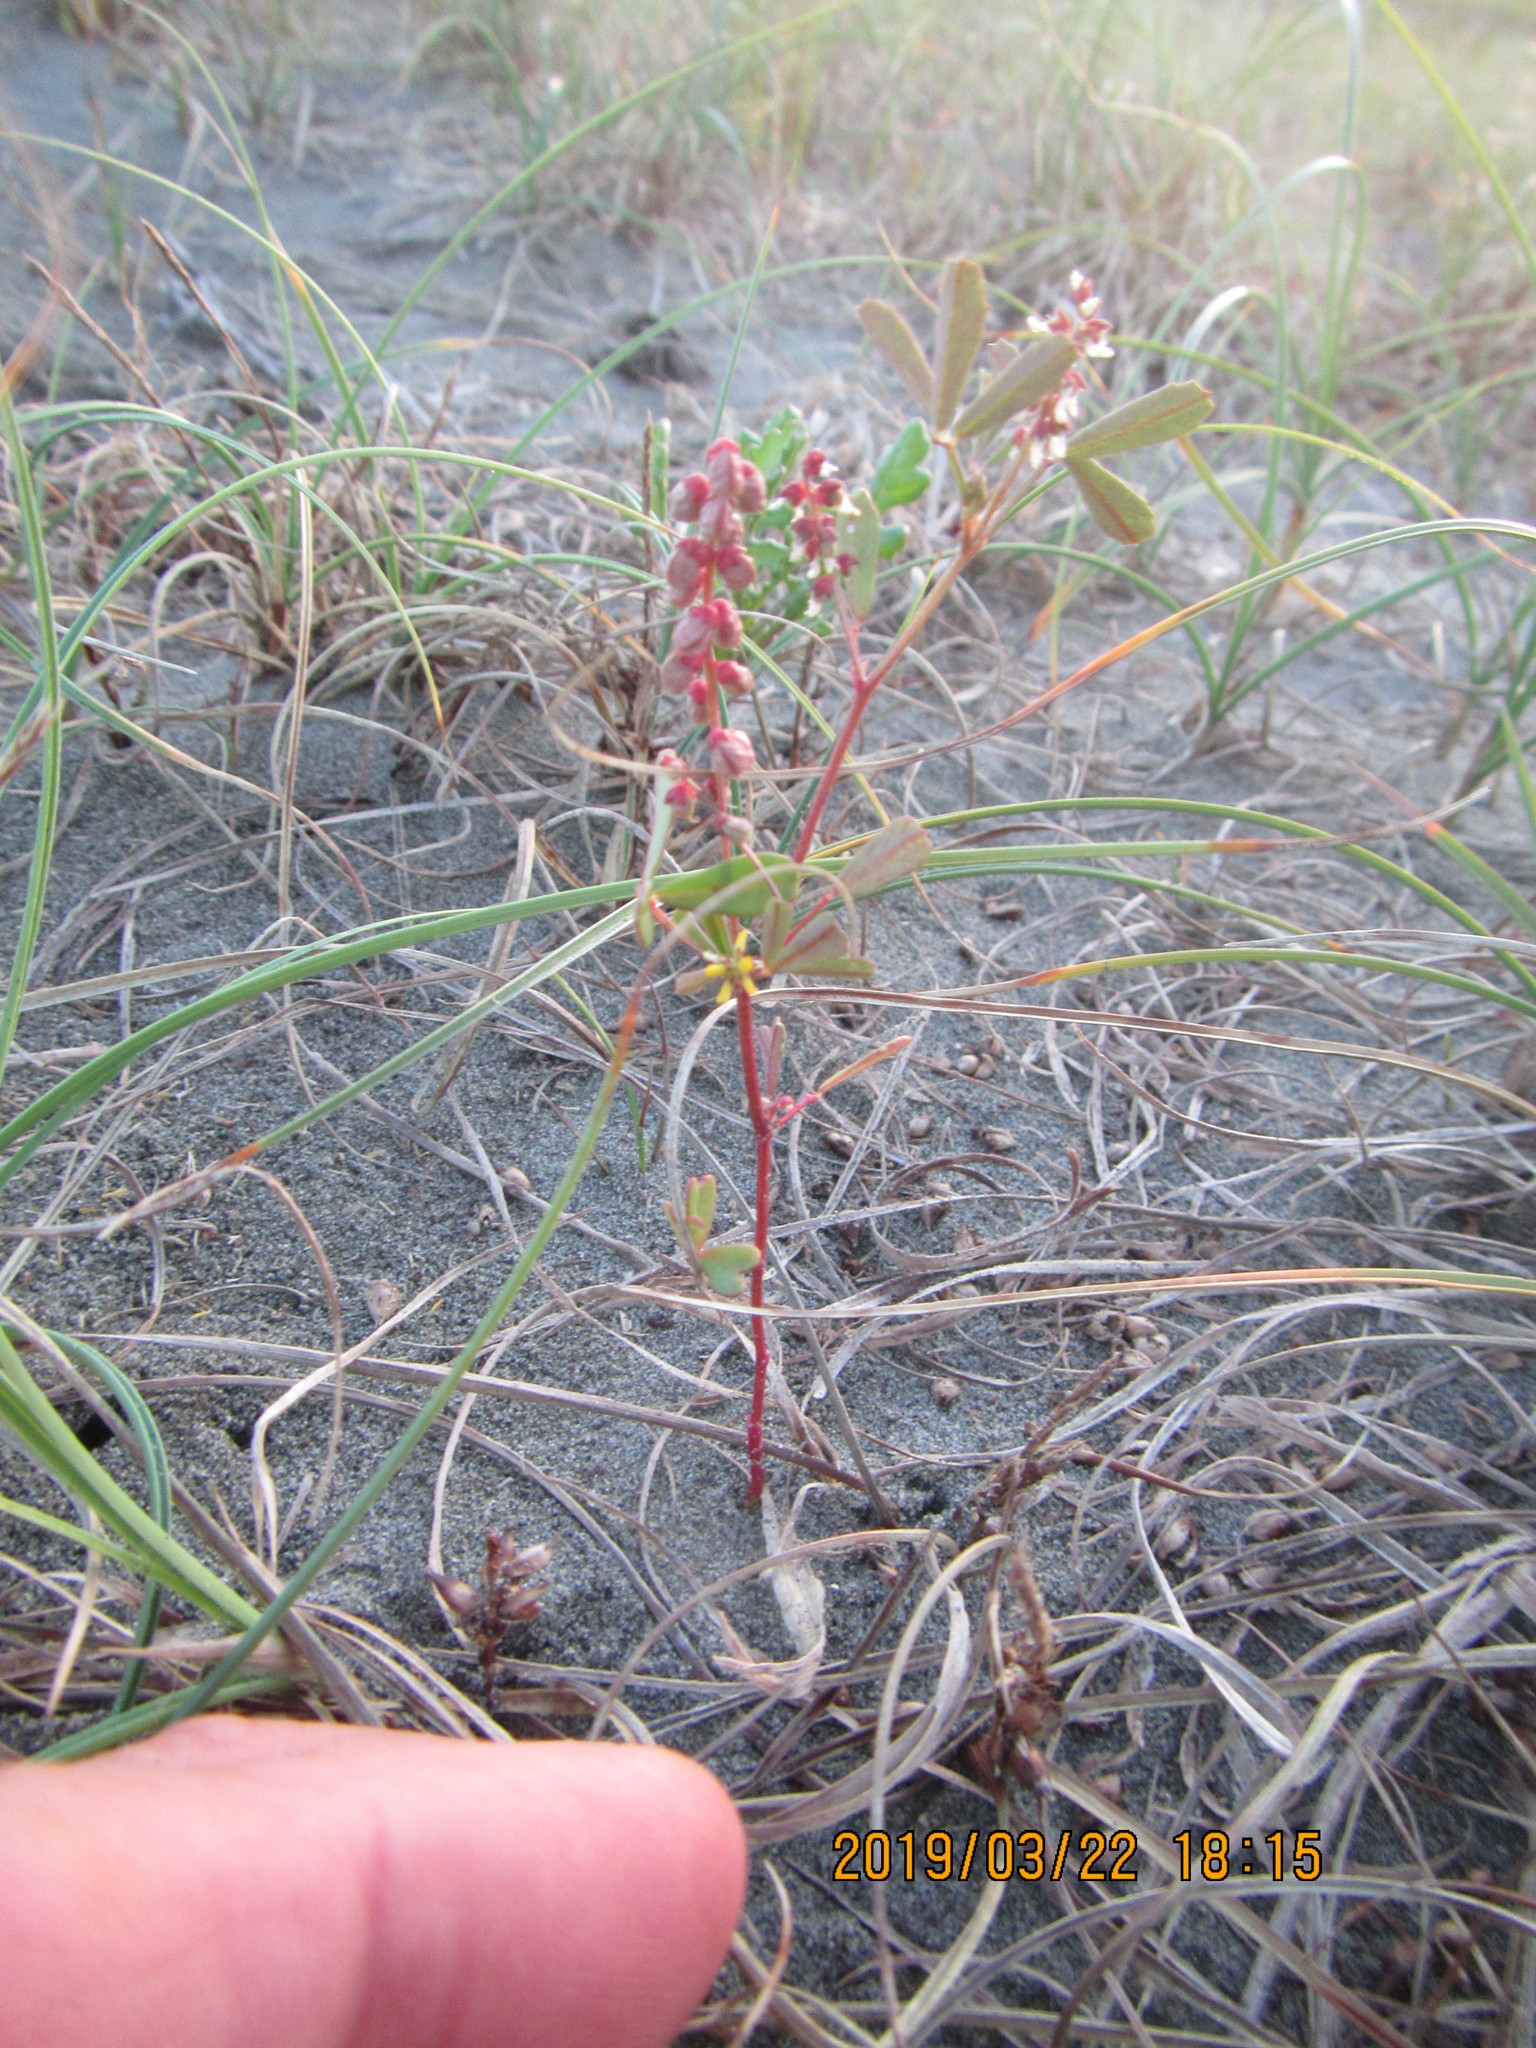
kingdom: Plantae
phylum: Tracheophyta
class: Magnoliopsida
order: Fabales
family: Fabaceae
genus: Melilotus
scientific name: Melilotus indicus
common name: Small melilot
